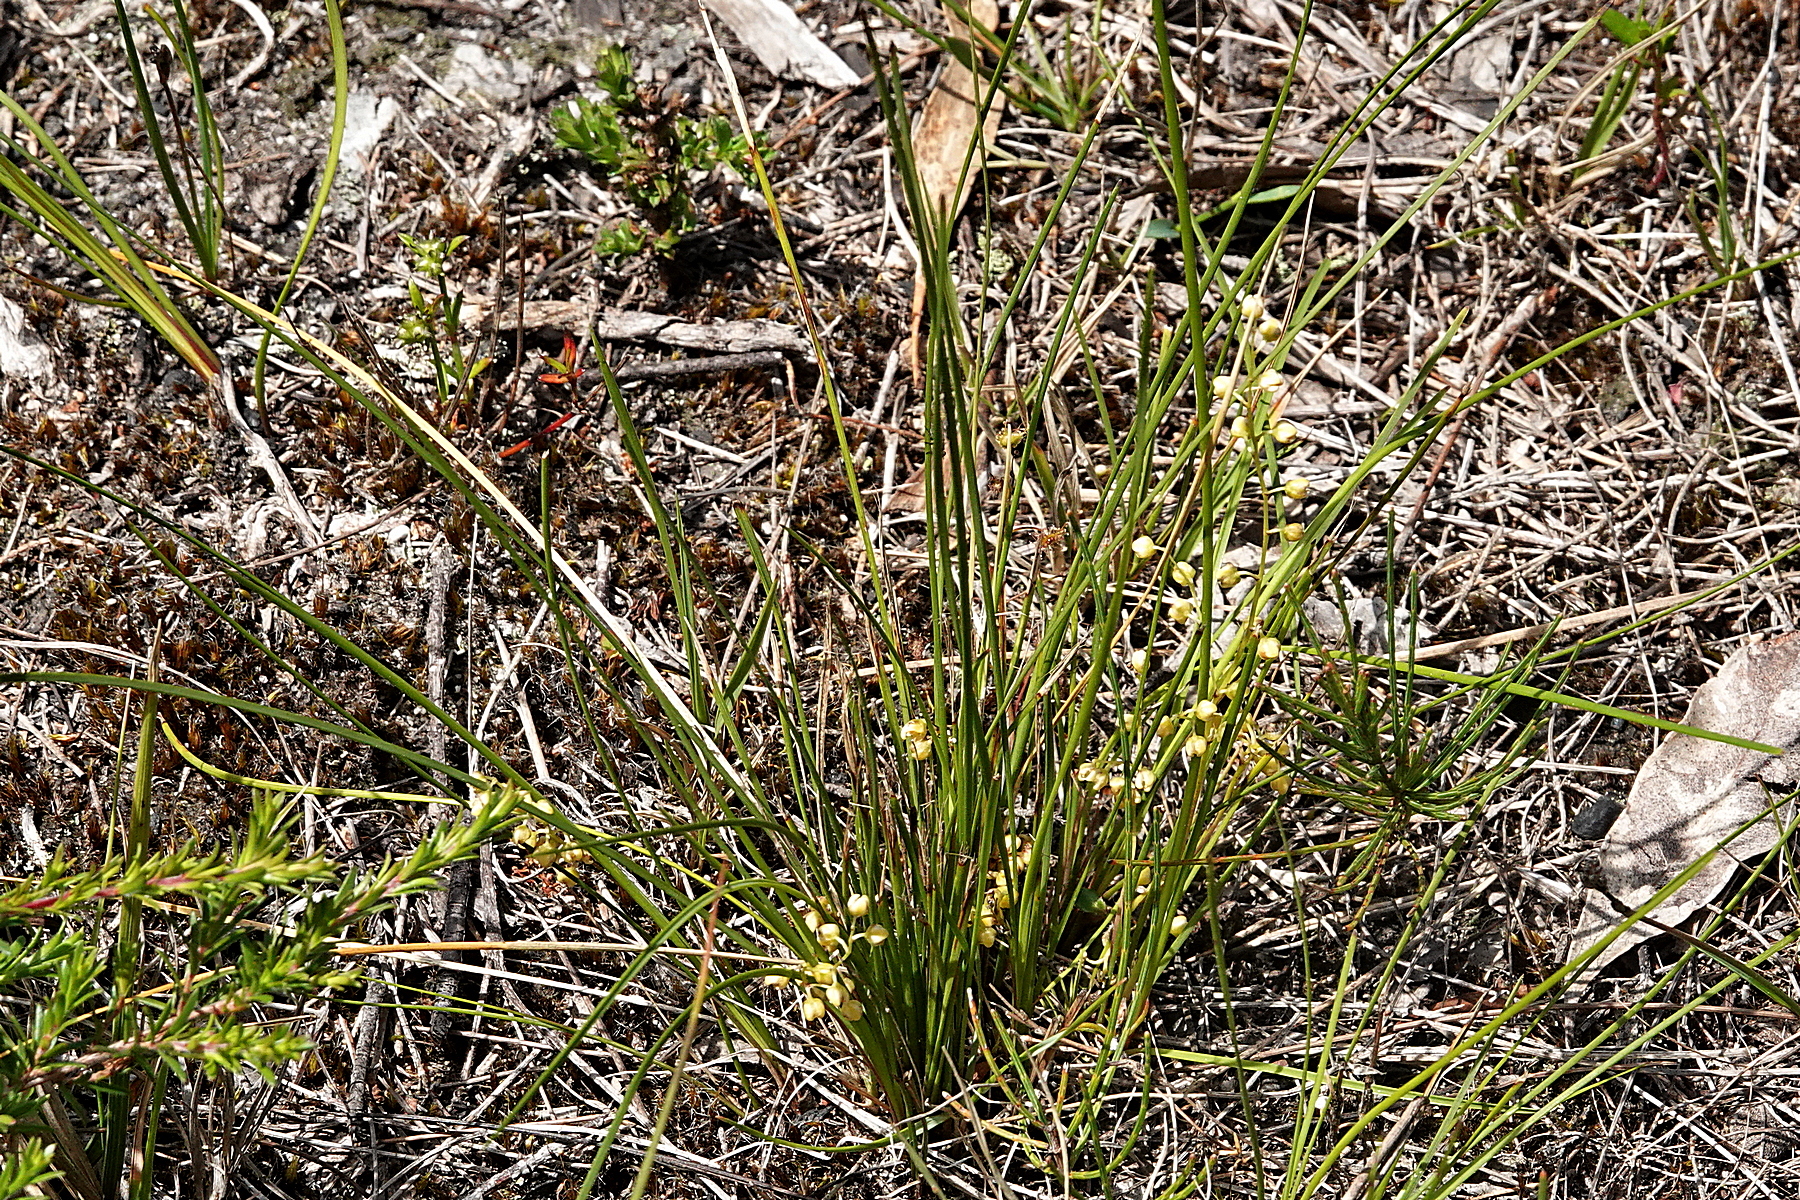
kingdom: Plantae
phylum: Tracheophyta
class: Liliopsida
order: Asparagales
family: Asparagaceae
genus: Lomandra
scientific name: Lomandra filiformis
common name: Wattle mat-rush
